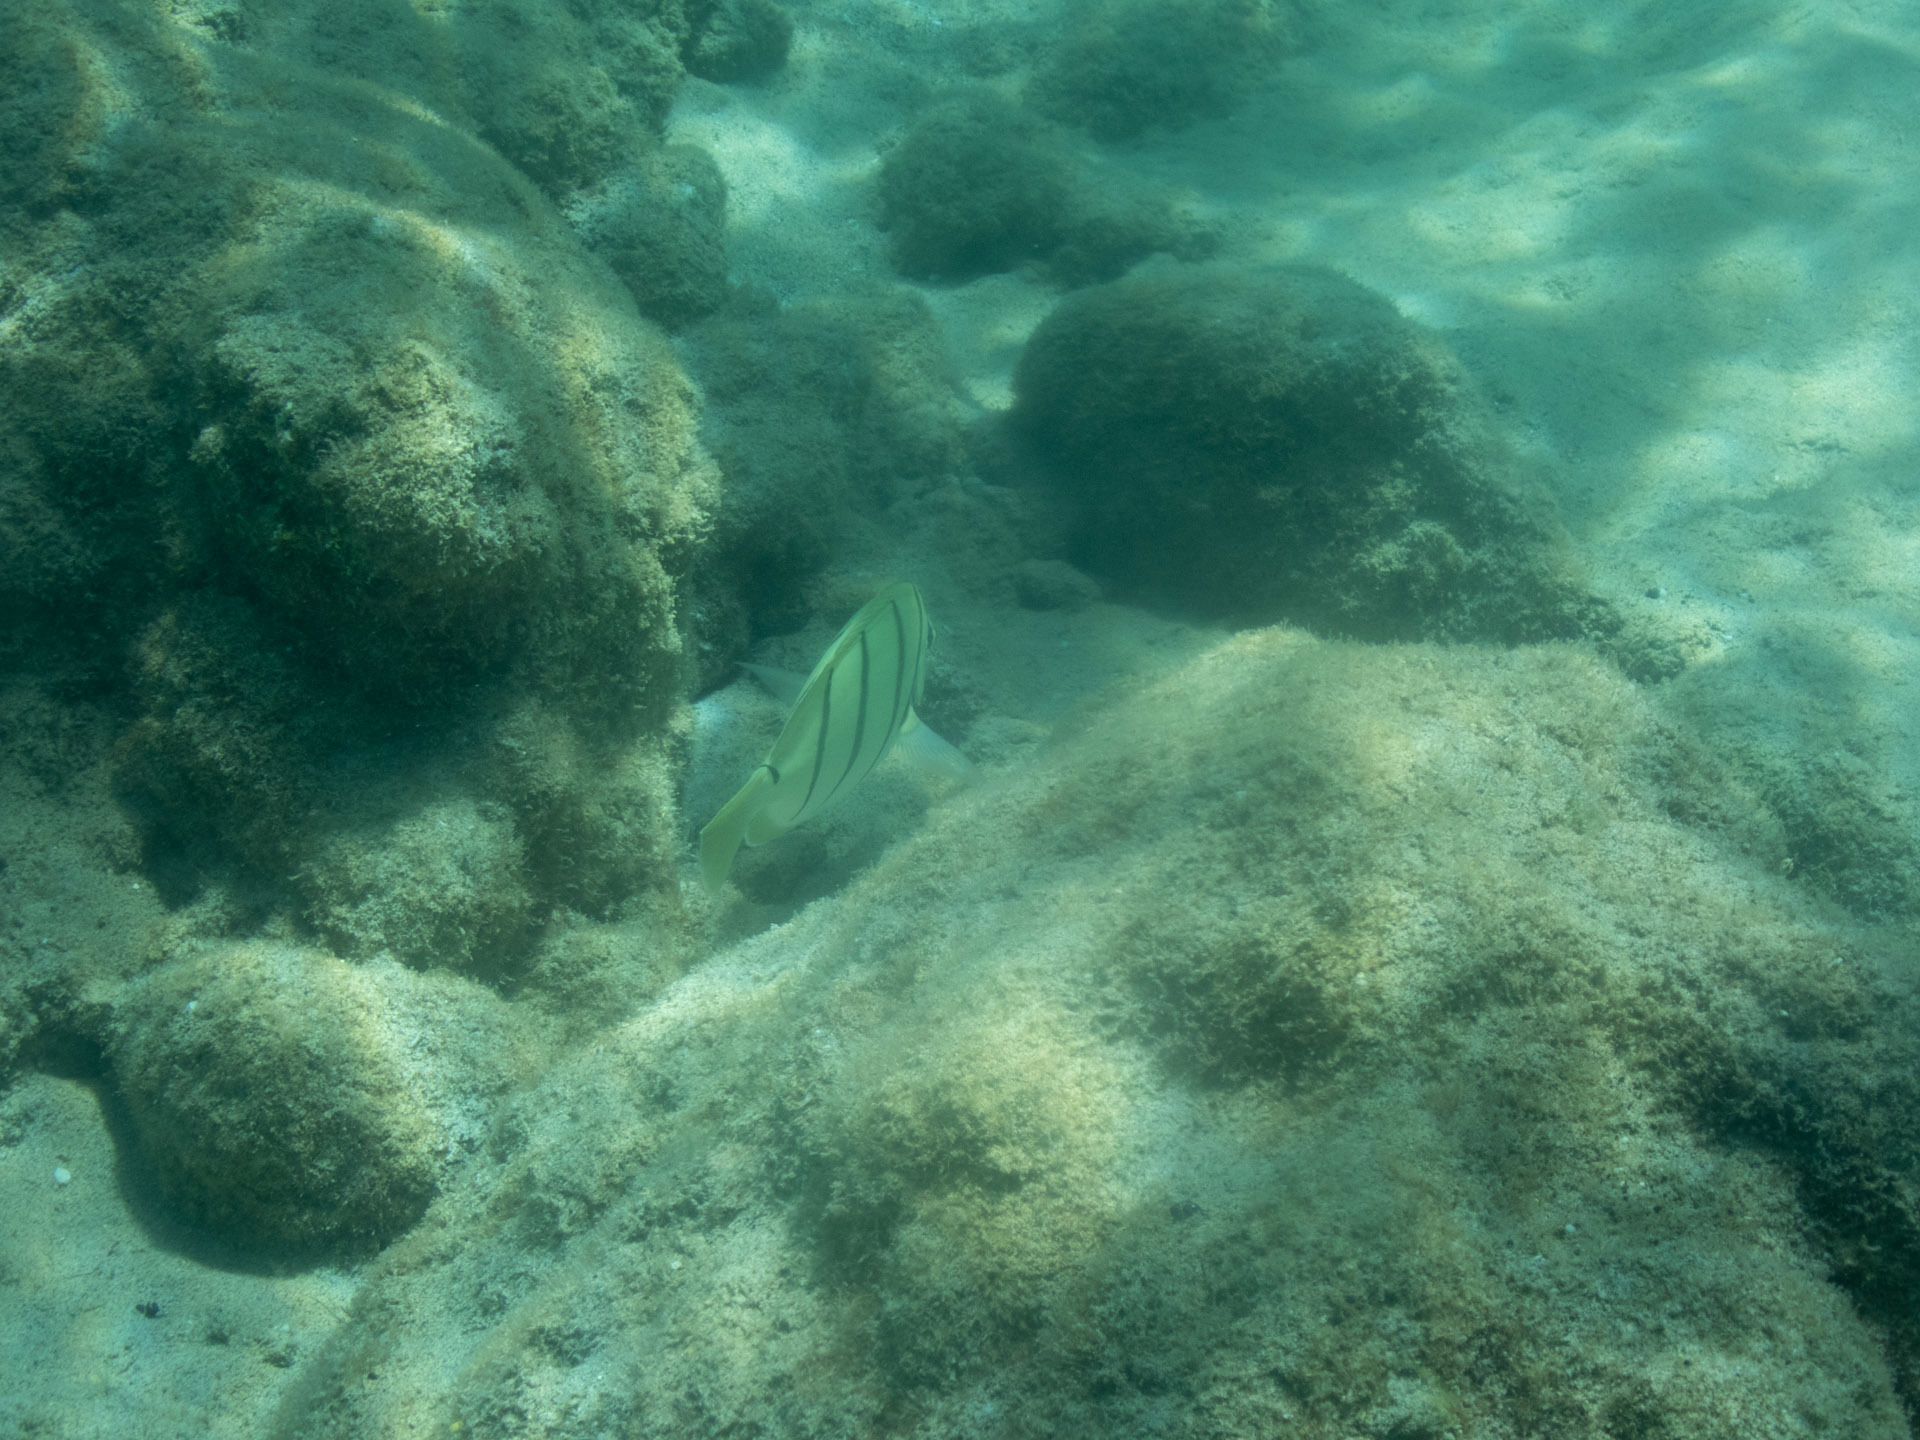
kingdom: Animalia
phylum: Chordata
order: Perciformes
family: Acanthuridae
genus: Acanthurus
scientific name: Acanthurus triostegus
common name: Convict surgeonfish
